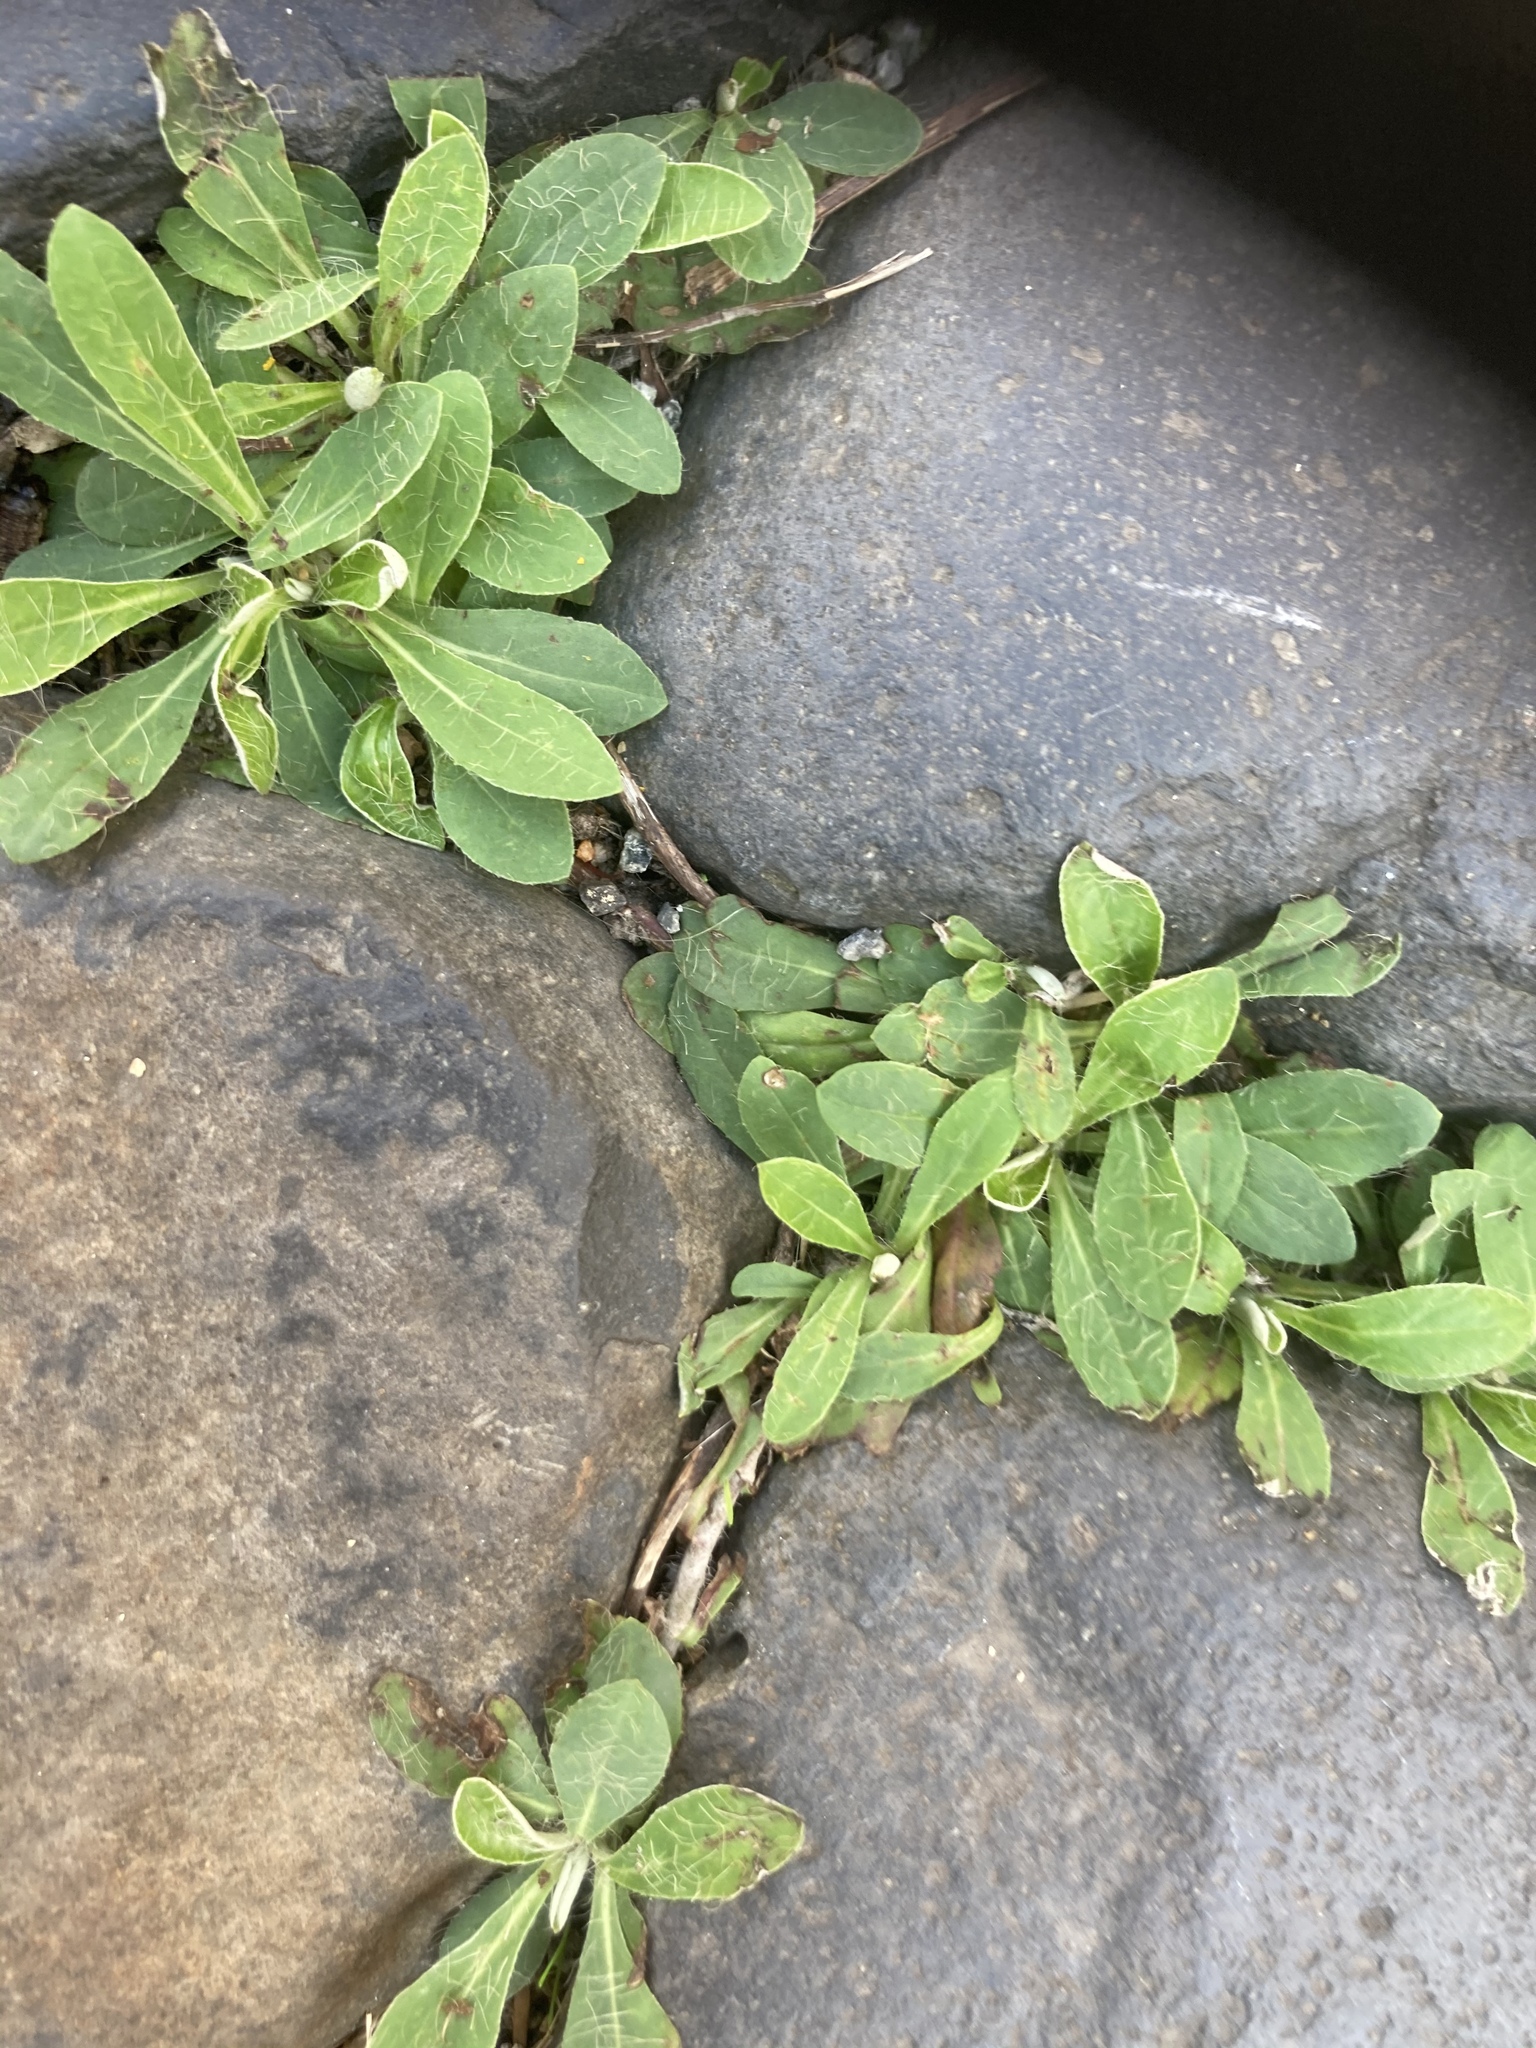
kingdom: Plantae
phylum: Tracheophyta
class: Magnoliopsida
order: Asterales
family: Asteraceae
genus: Pilosella
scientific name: Pilosella officinarum
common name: Mouse-ear hawkweed
